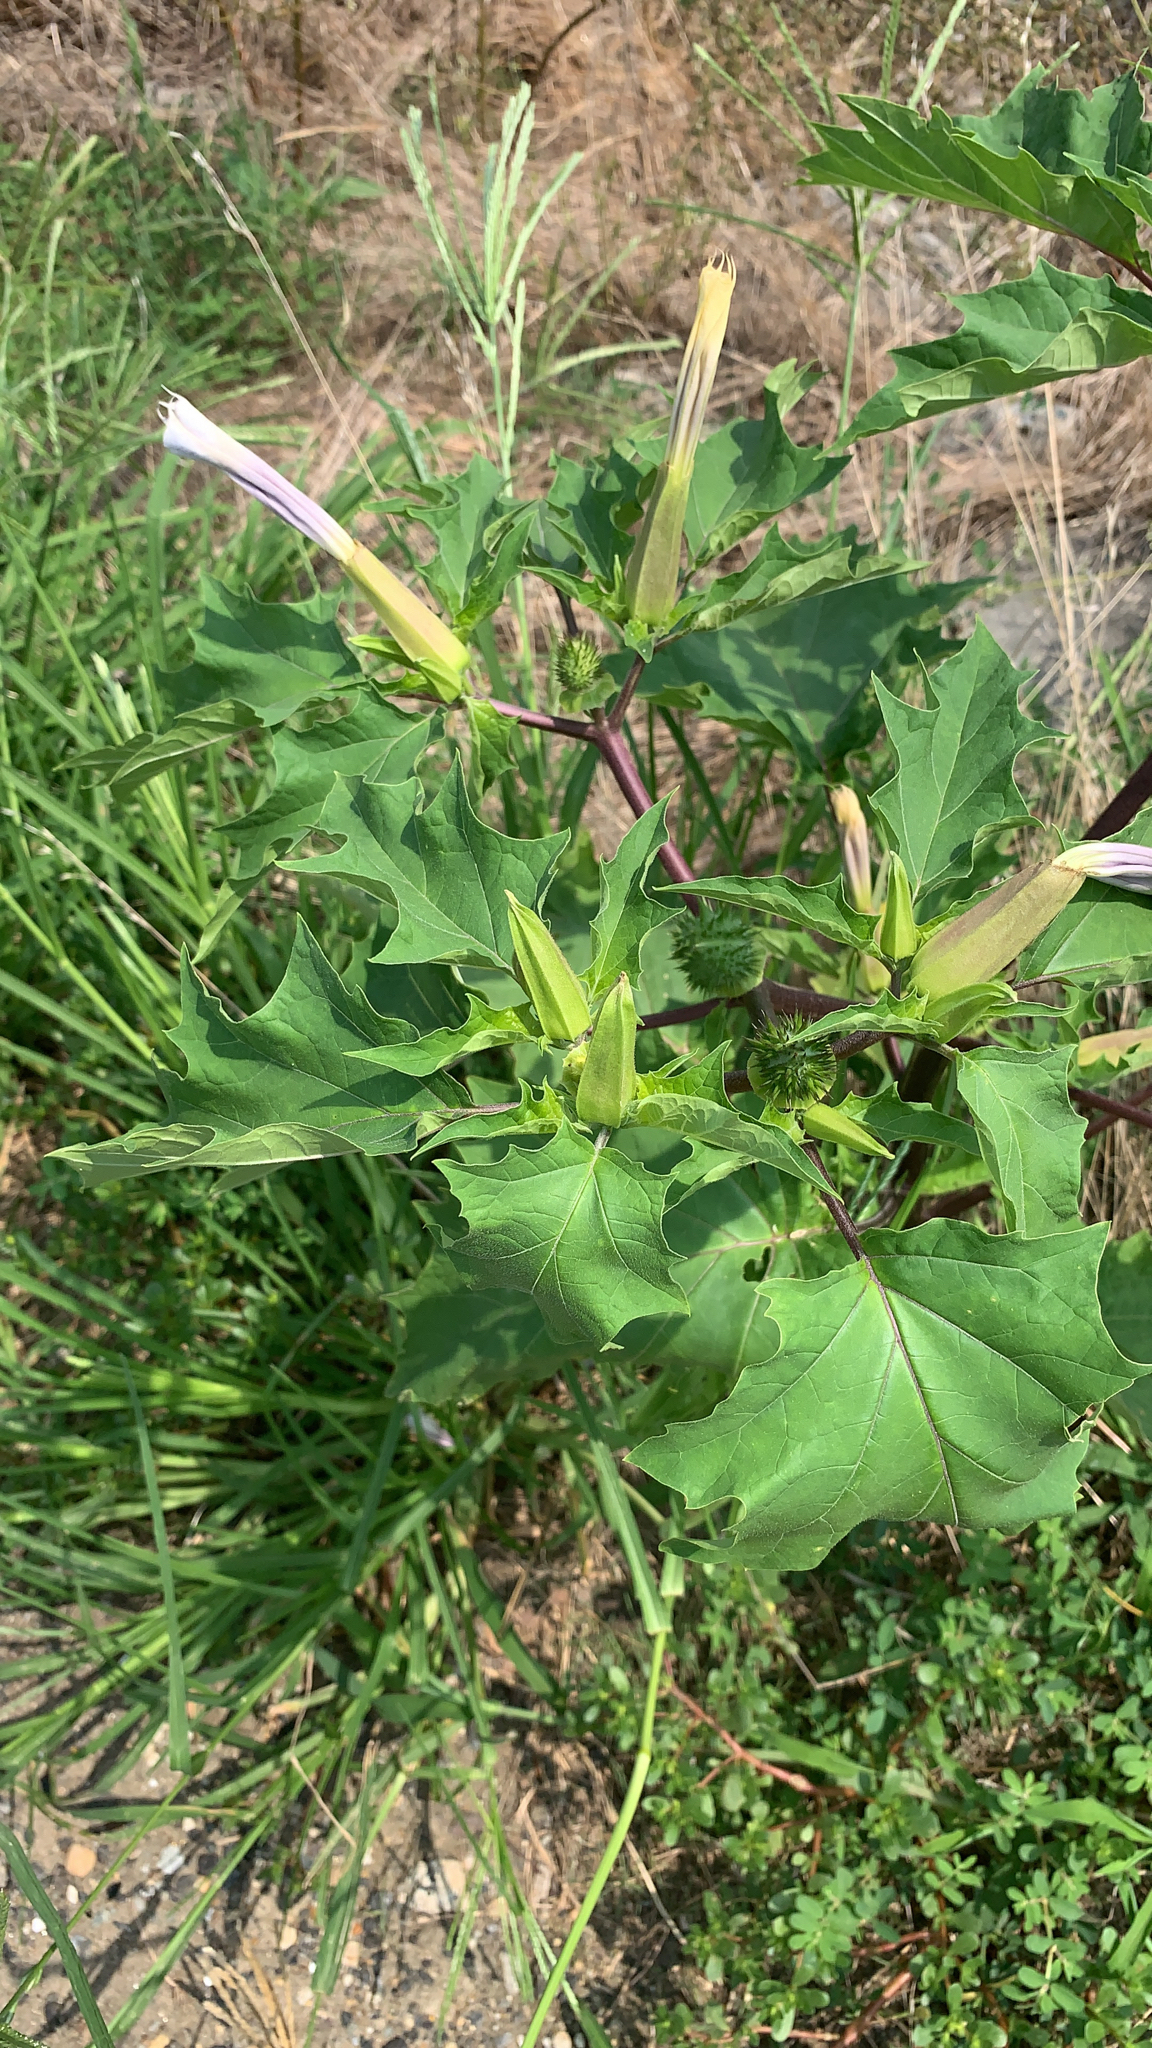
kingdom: Plantae
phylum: Tracheophyta
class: Magnoliopsida
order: Solanales
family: Solanaceae
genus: Datura
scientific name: Datura stramonium
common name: Thorn-apple
